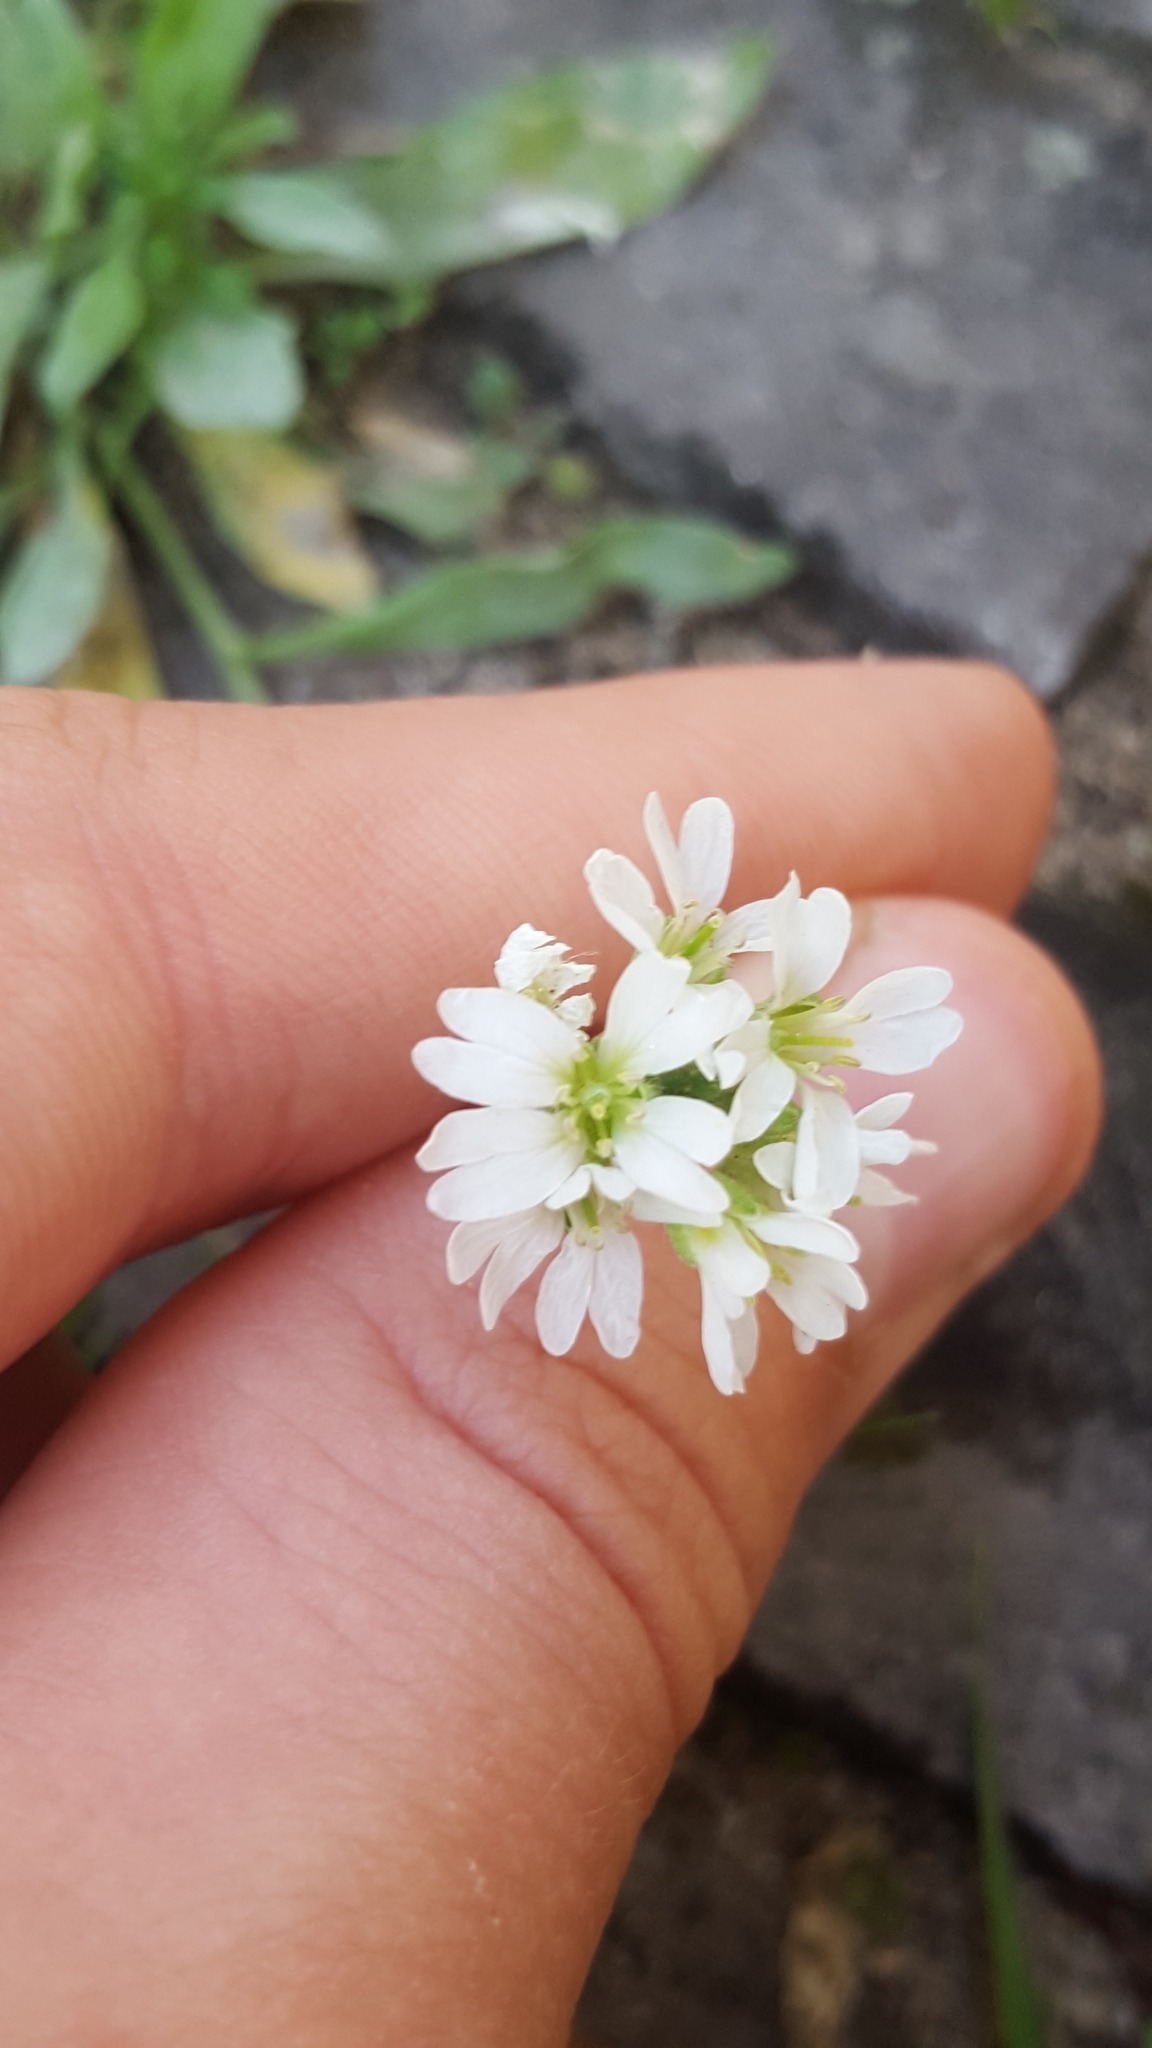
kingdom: Plantae
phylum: Tracheophyta
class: Magnoliopsida
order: Brassicales
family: Brassicaceae
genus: Berteroa
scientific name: Berteroa incana
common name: Hoary alison
